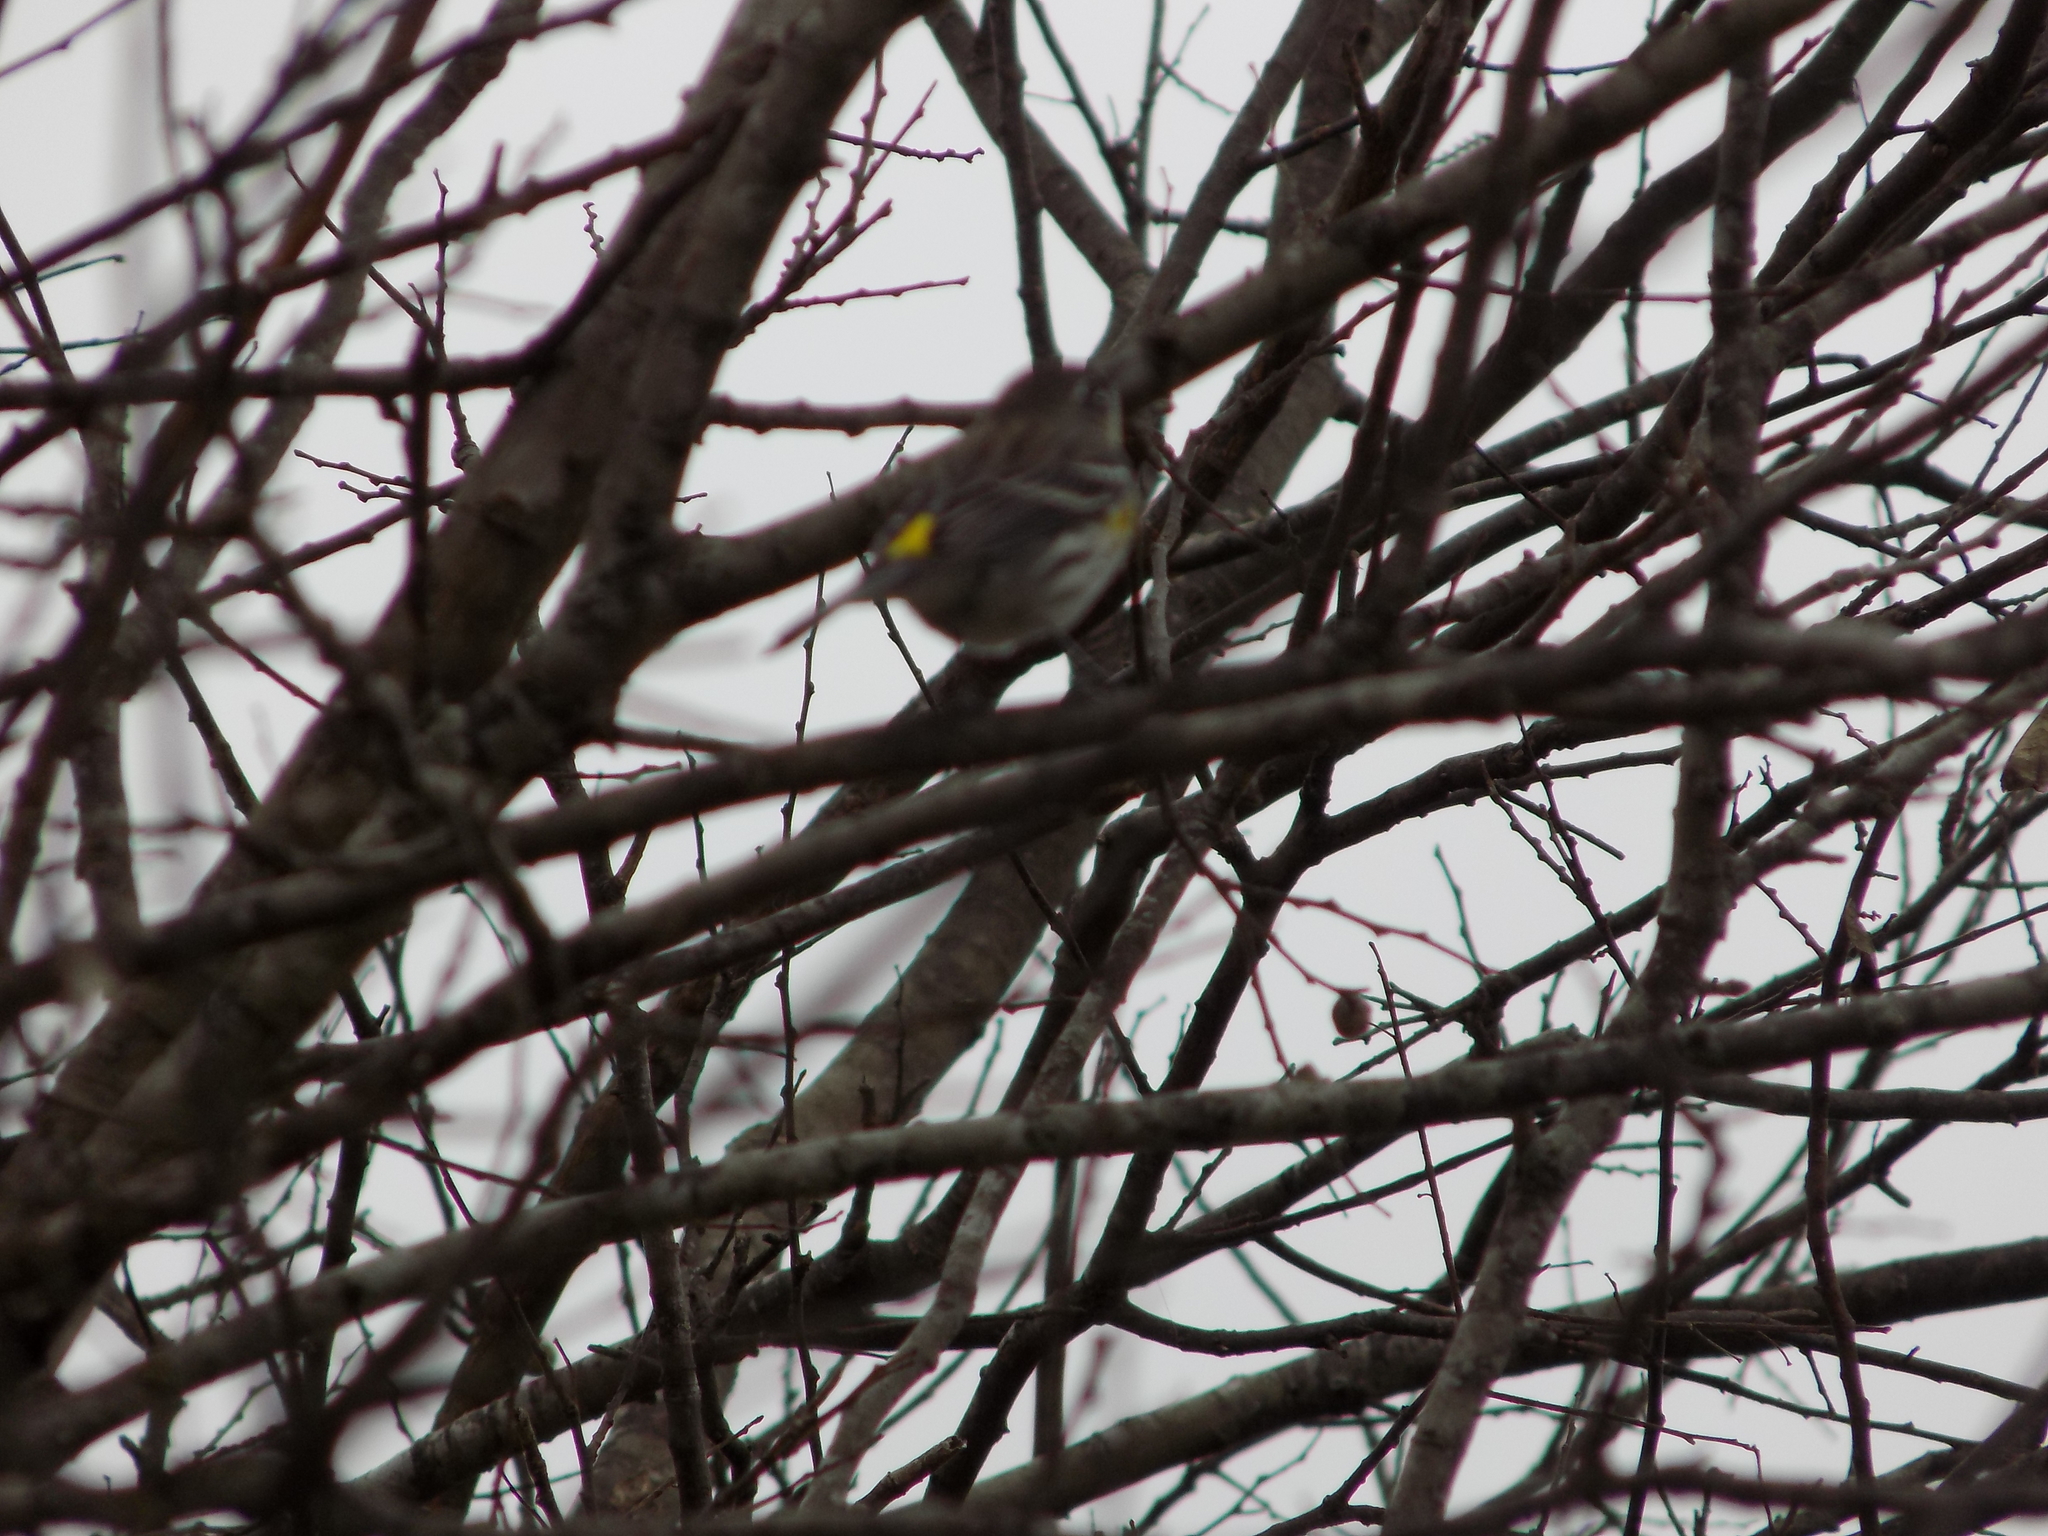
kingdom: Animalia
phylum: Chordata
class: Aves
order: Passeriformes
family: Parulidae
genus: Setophaga
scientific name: Setophaga coronata
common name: Myrtle warbler
